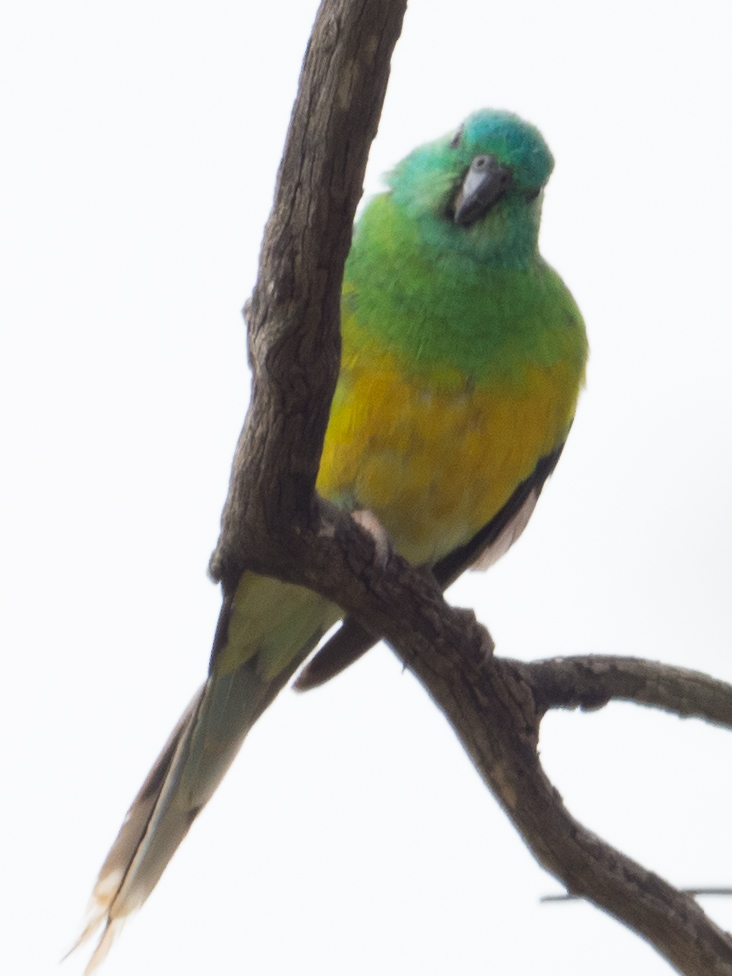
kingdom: Animalia
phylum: Chordata
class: Aves
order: Psittaciformes
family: Psittacidae
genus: Psephotus
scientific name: Psephotus haematonotus
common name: Red-rumped parrot
